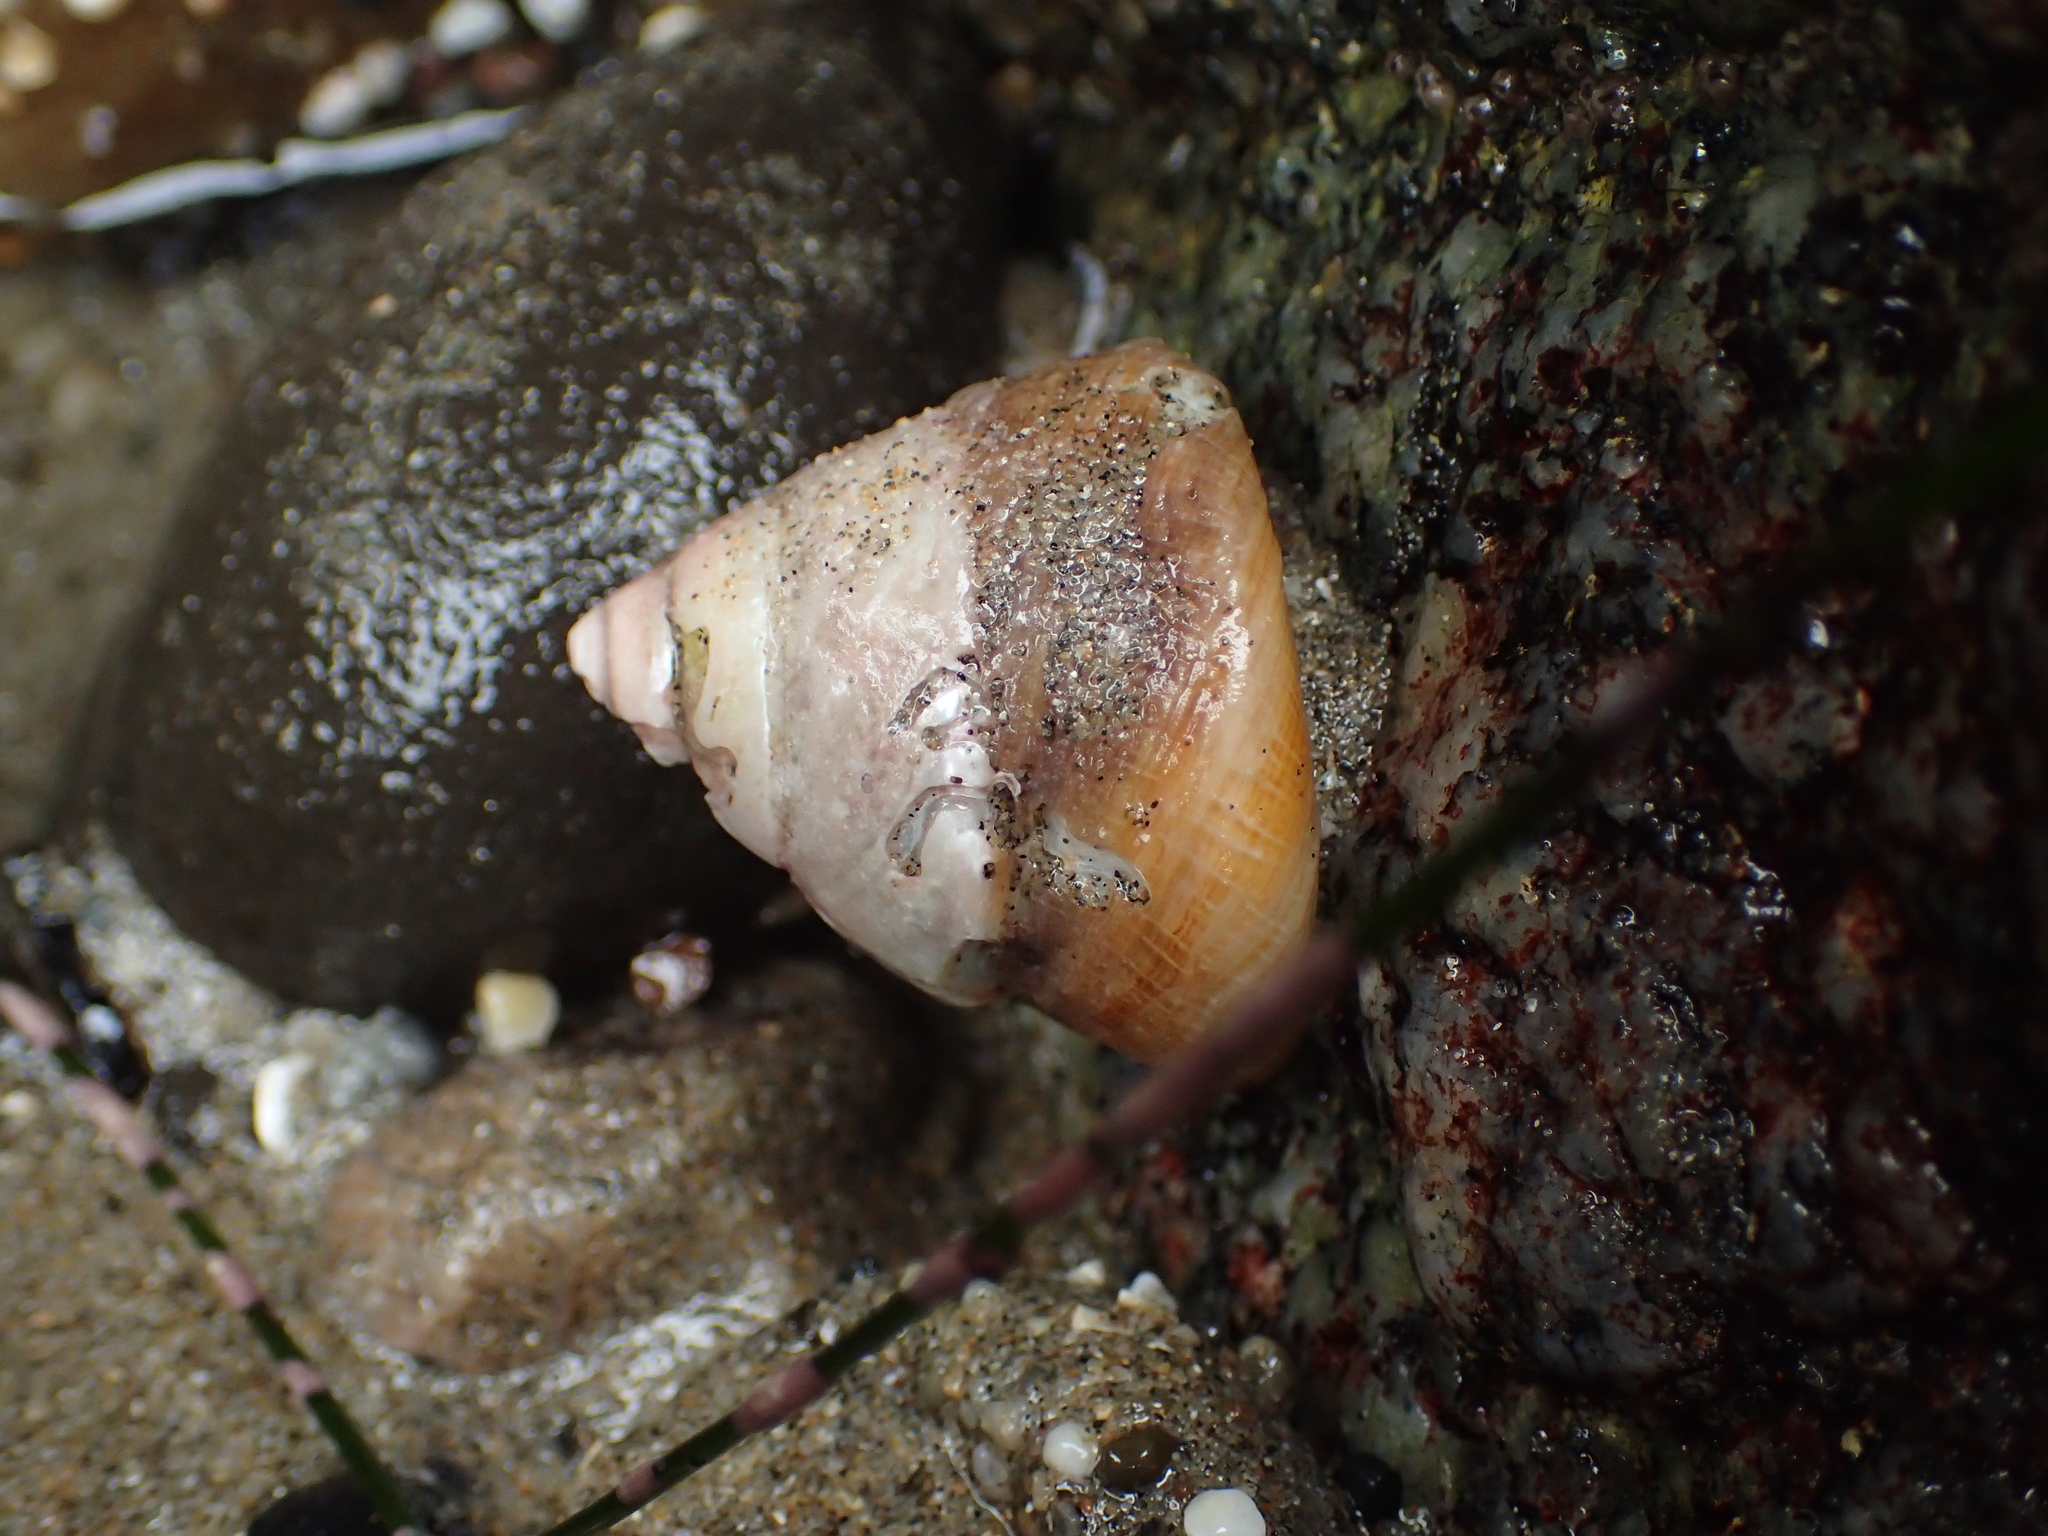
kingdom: Animalia
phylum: Mollusca
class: Gastropoda
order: Trochida
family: Tegulidae
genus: Tegula
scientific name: Tegula montereyi
